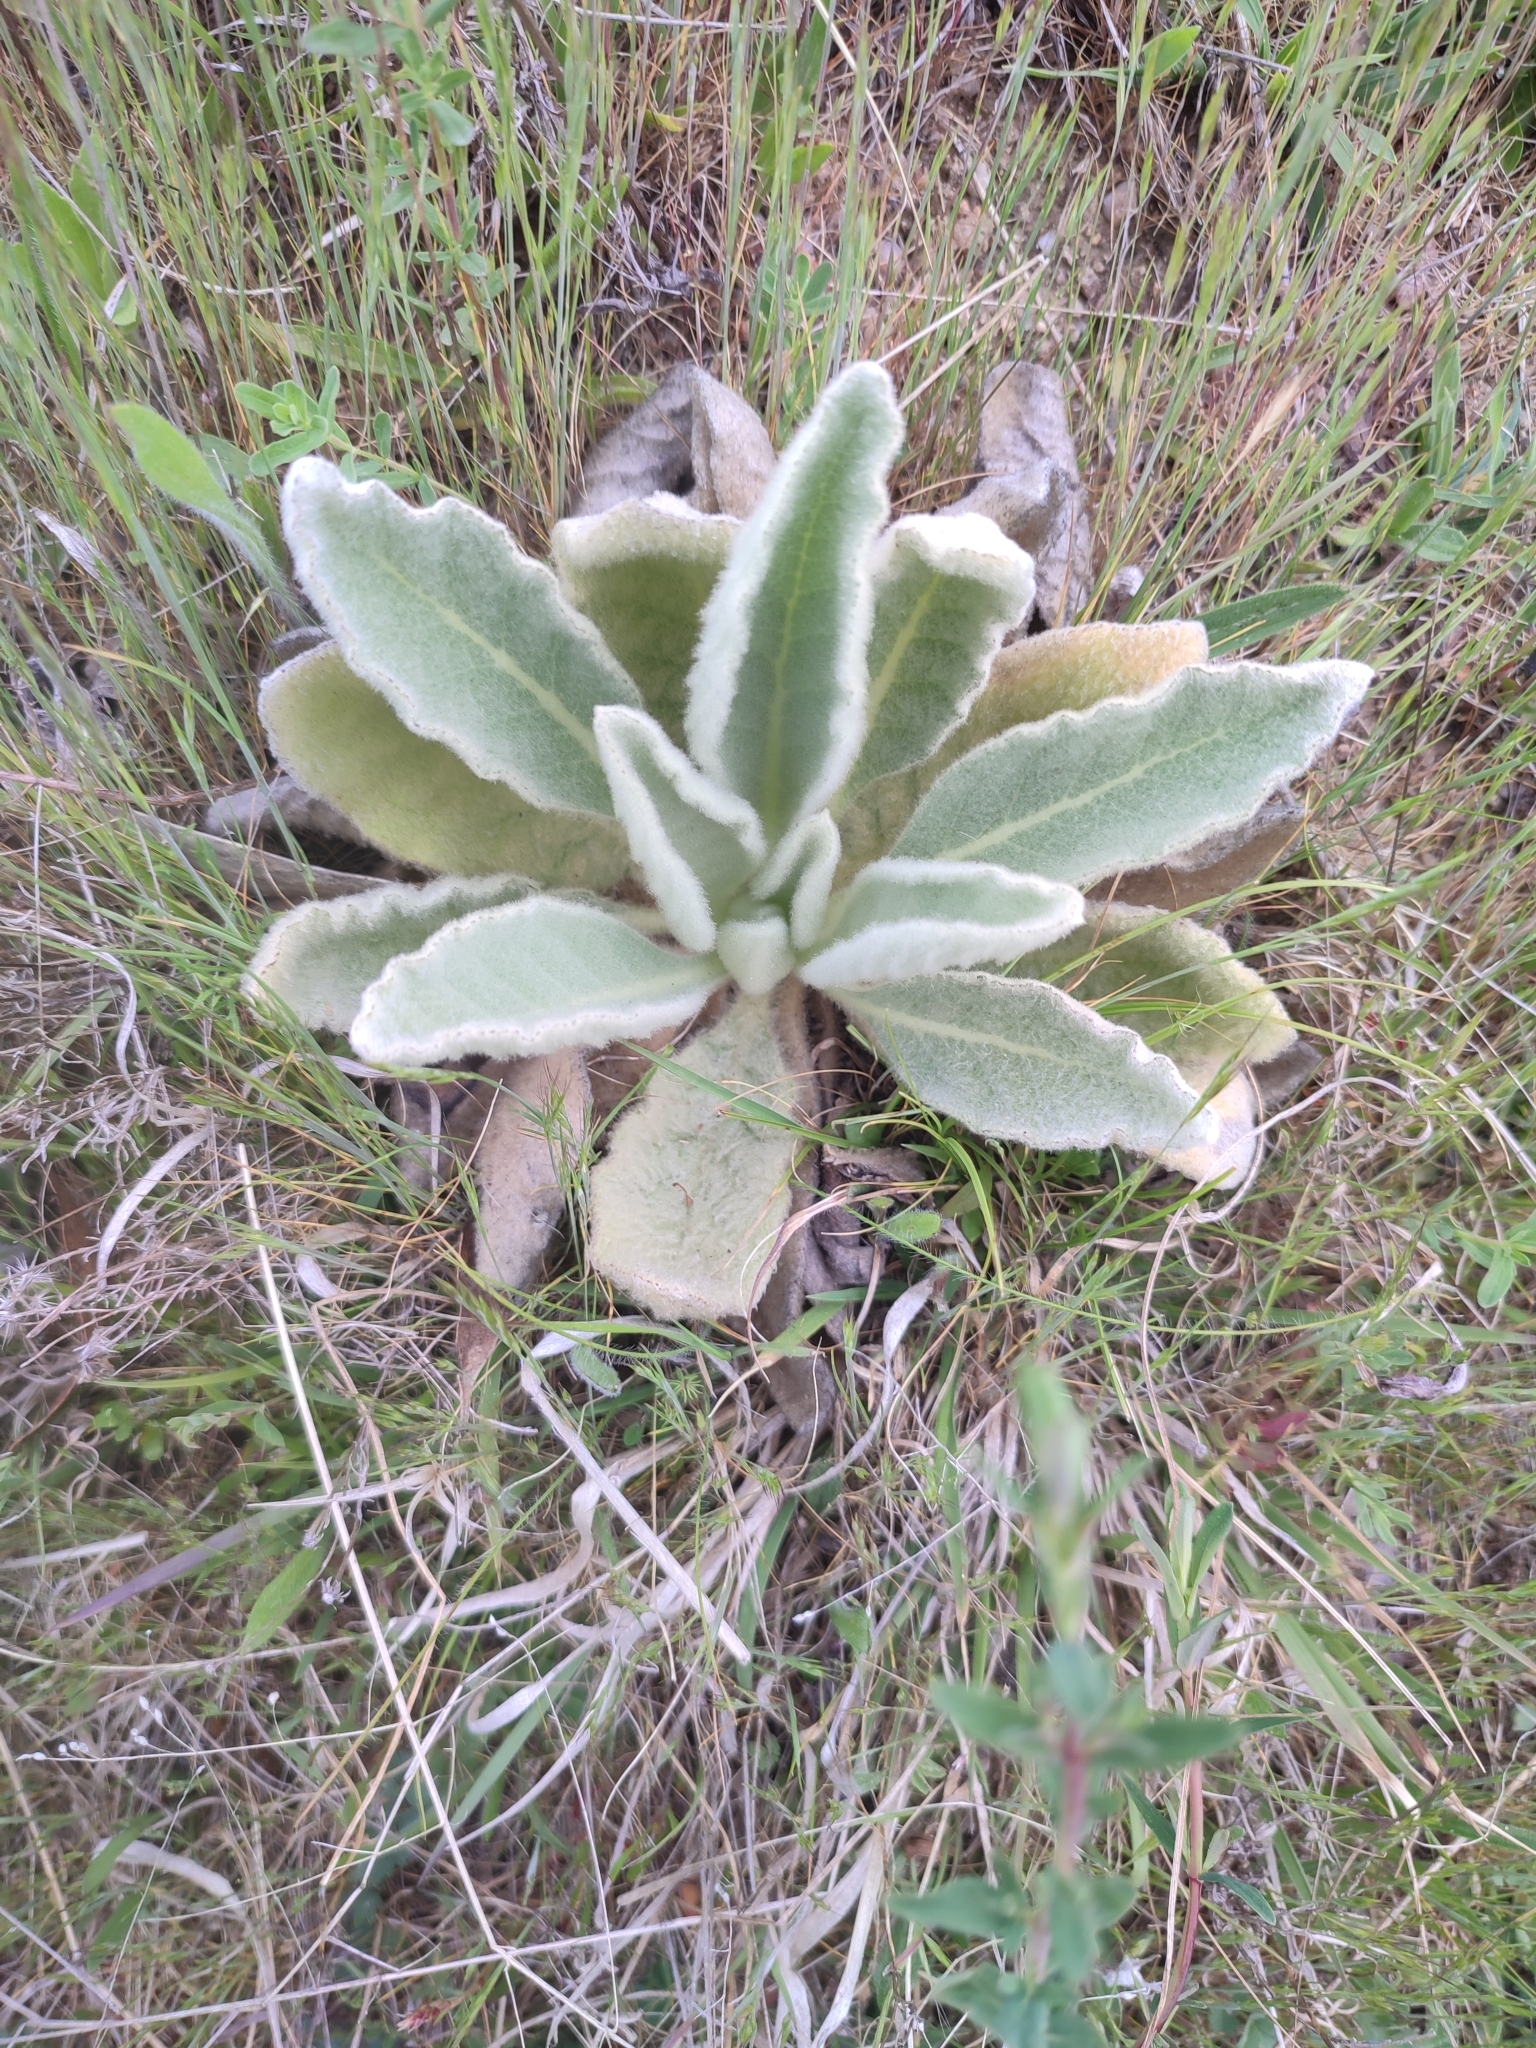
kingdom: Plantae
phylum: Tracheophyta
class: Magnoliopsida
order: Lamiales
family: Scrophulariaceae
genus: Verbascum
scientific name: Verbascum thapsus
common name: Common mullein
